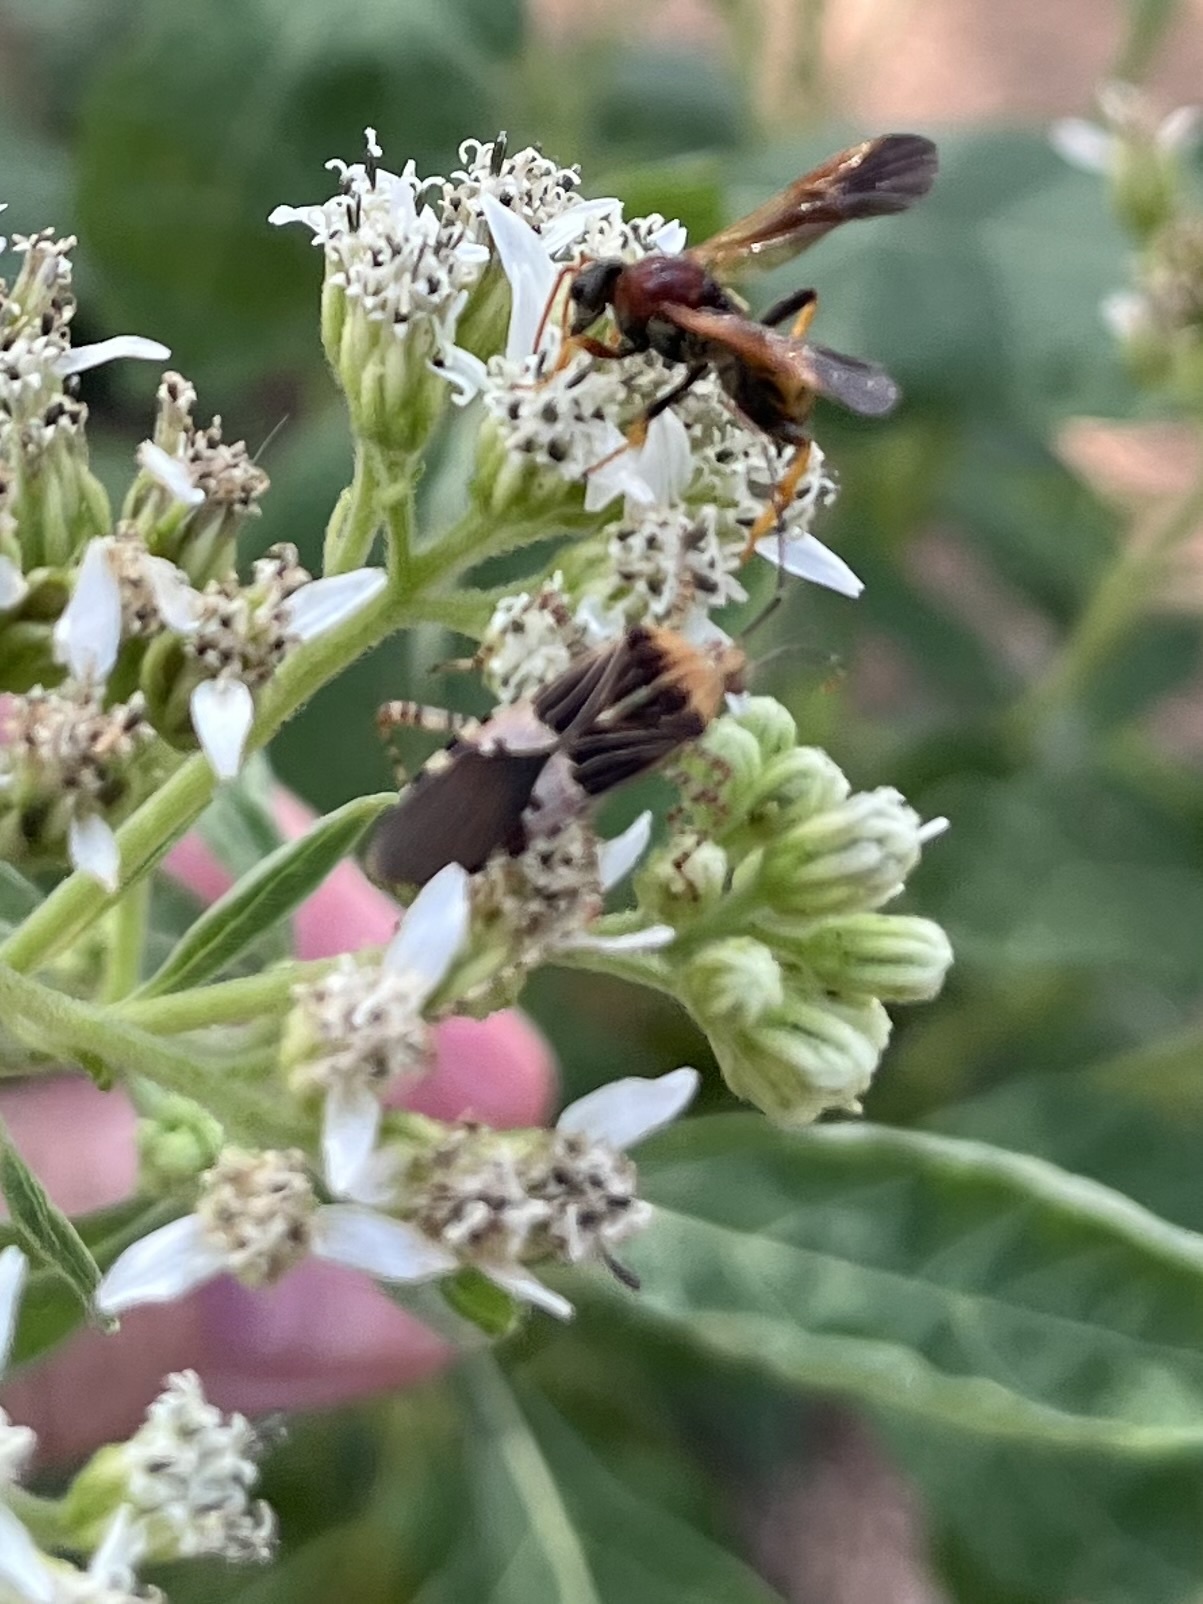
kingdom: Animalia
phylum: Arthropoda
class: Insecta
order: Hemiptera
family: Coreidae
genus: Hypselonotus
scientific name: Hypselonotus punctiventris
